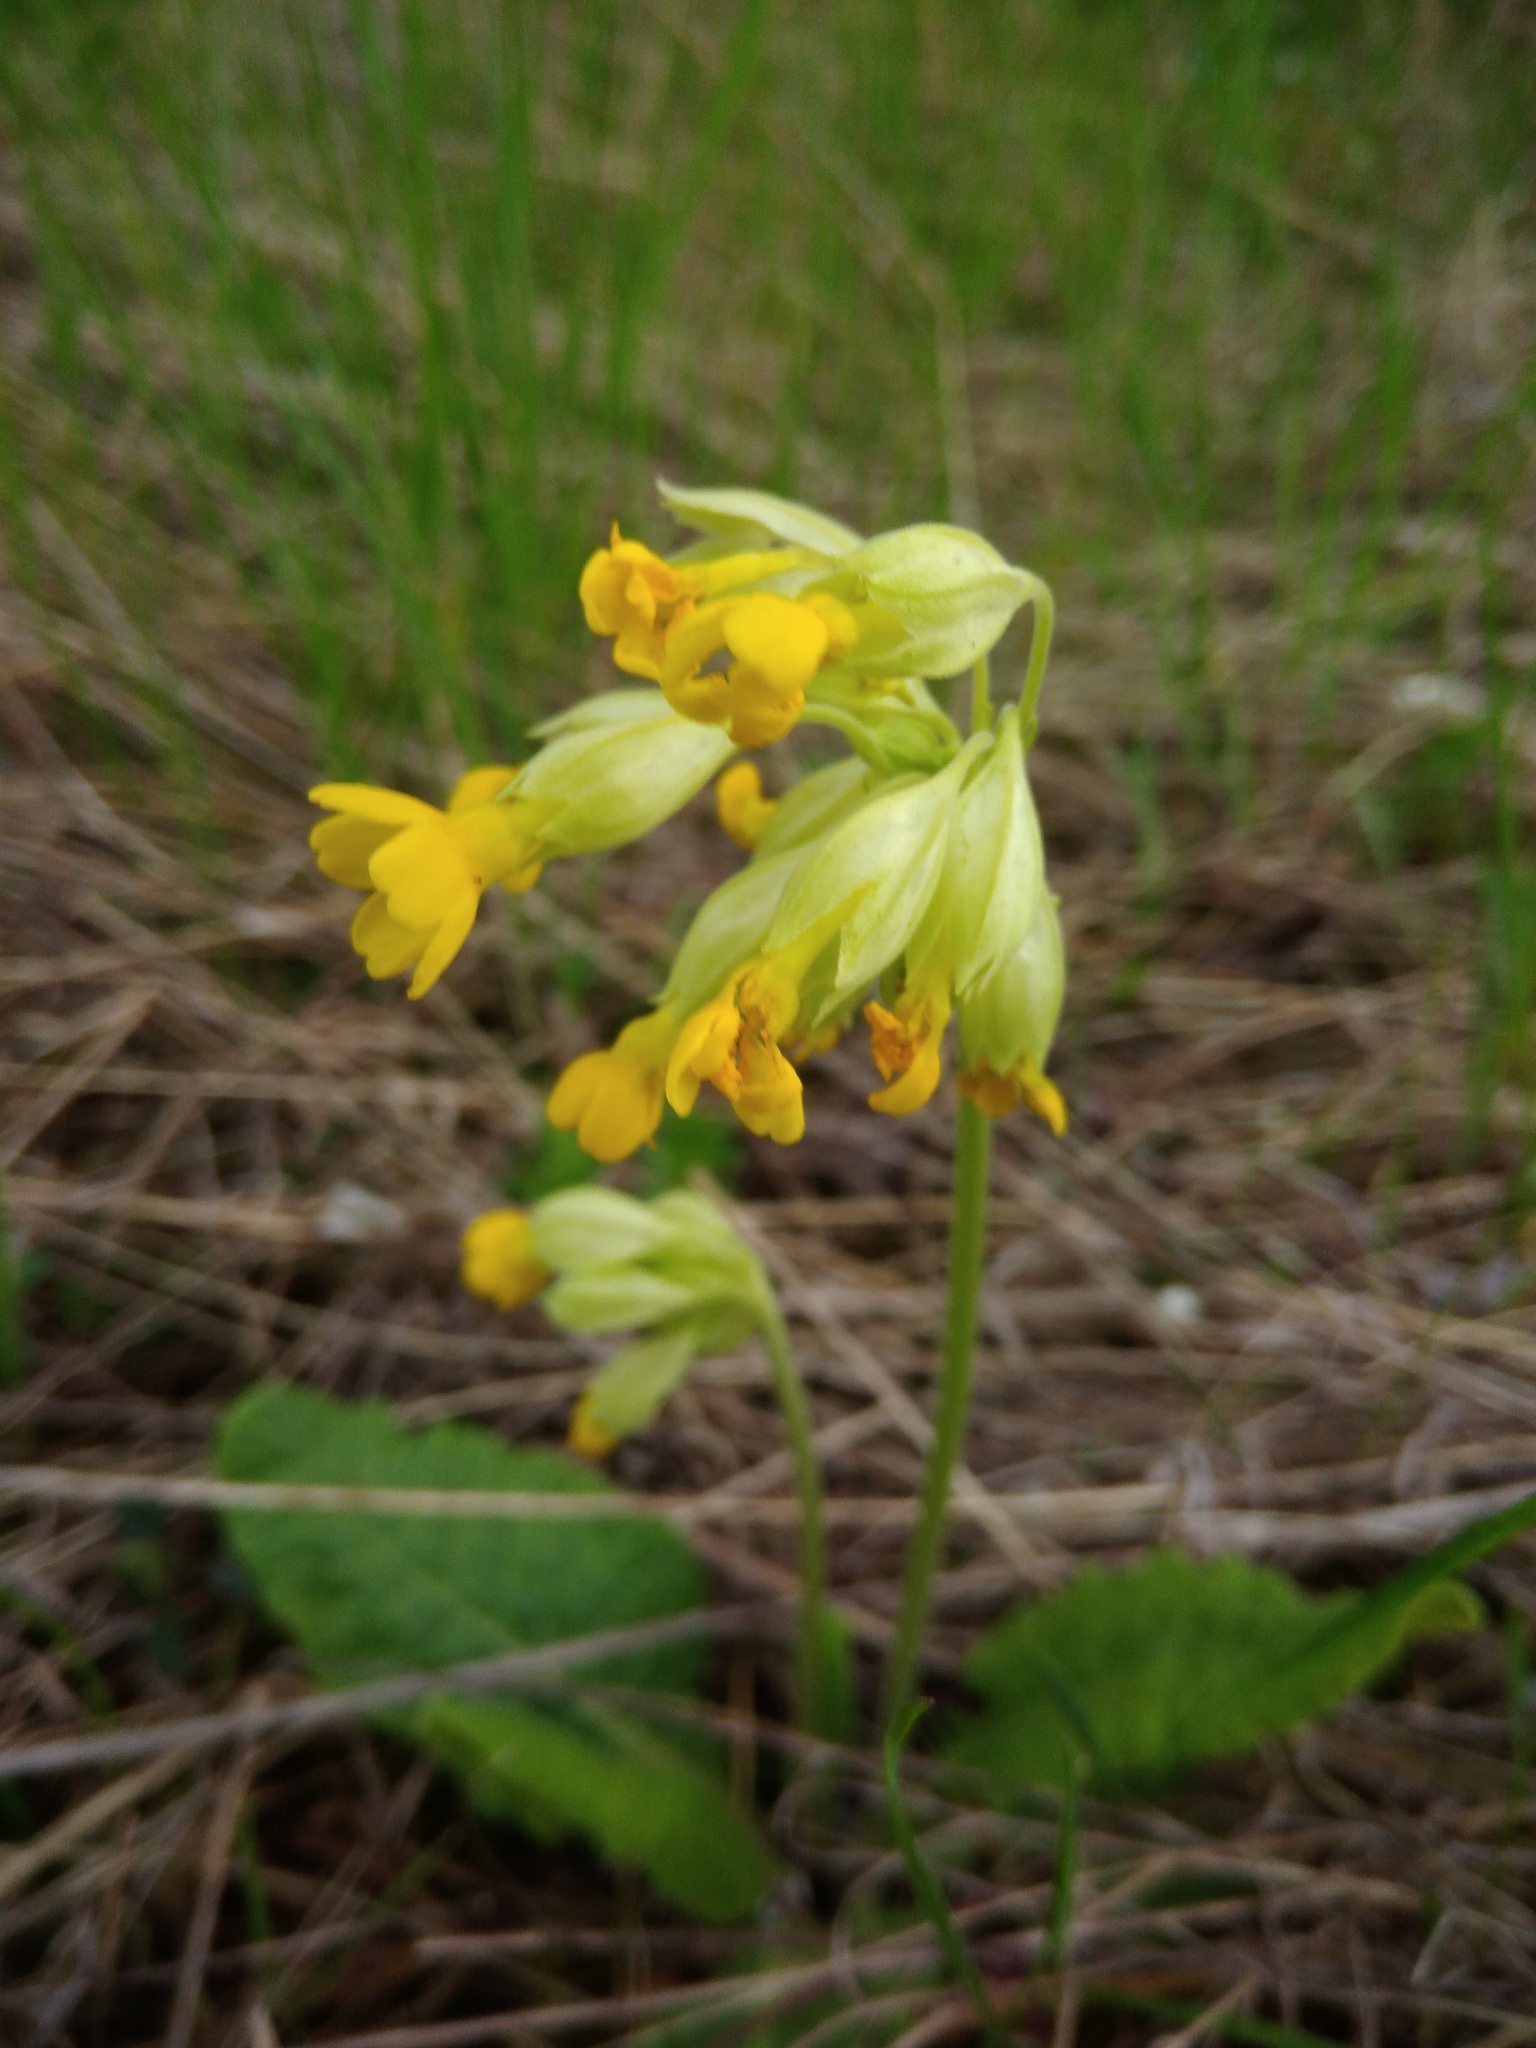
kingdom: Plantae
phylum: Tracheophyta
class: Magnoliopsida
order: Ericales
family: Primulaceae
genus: Primula
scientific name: Primula veris
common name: Cowslip
